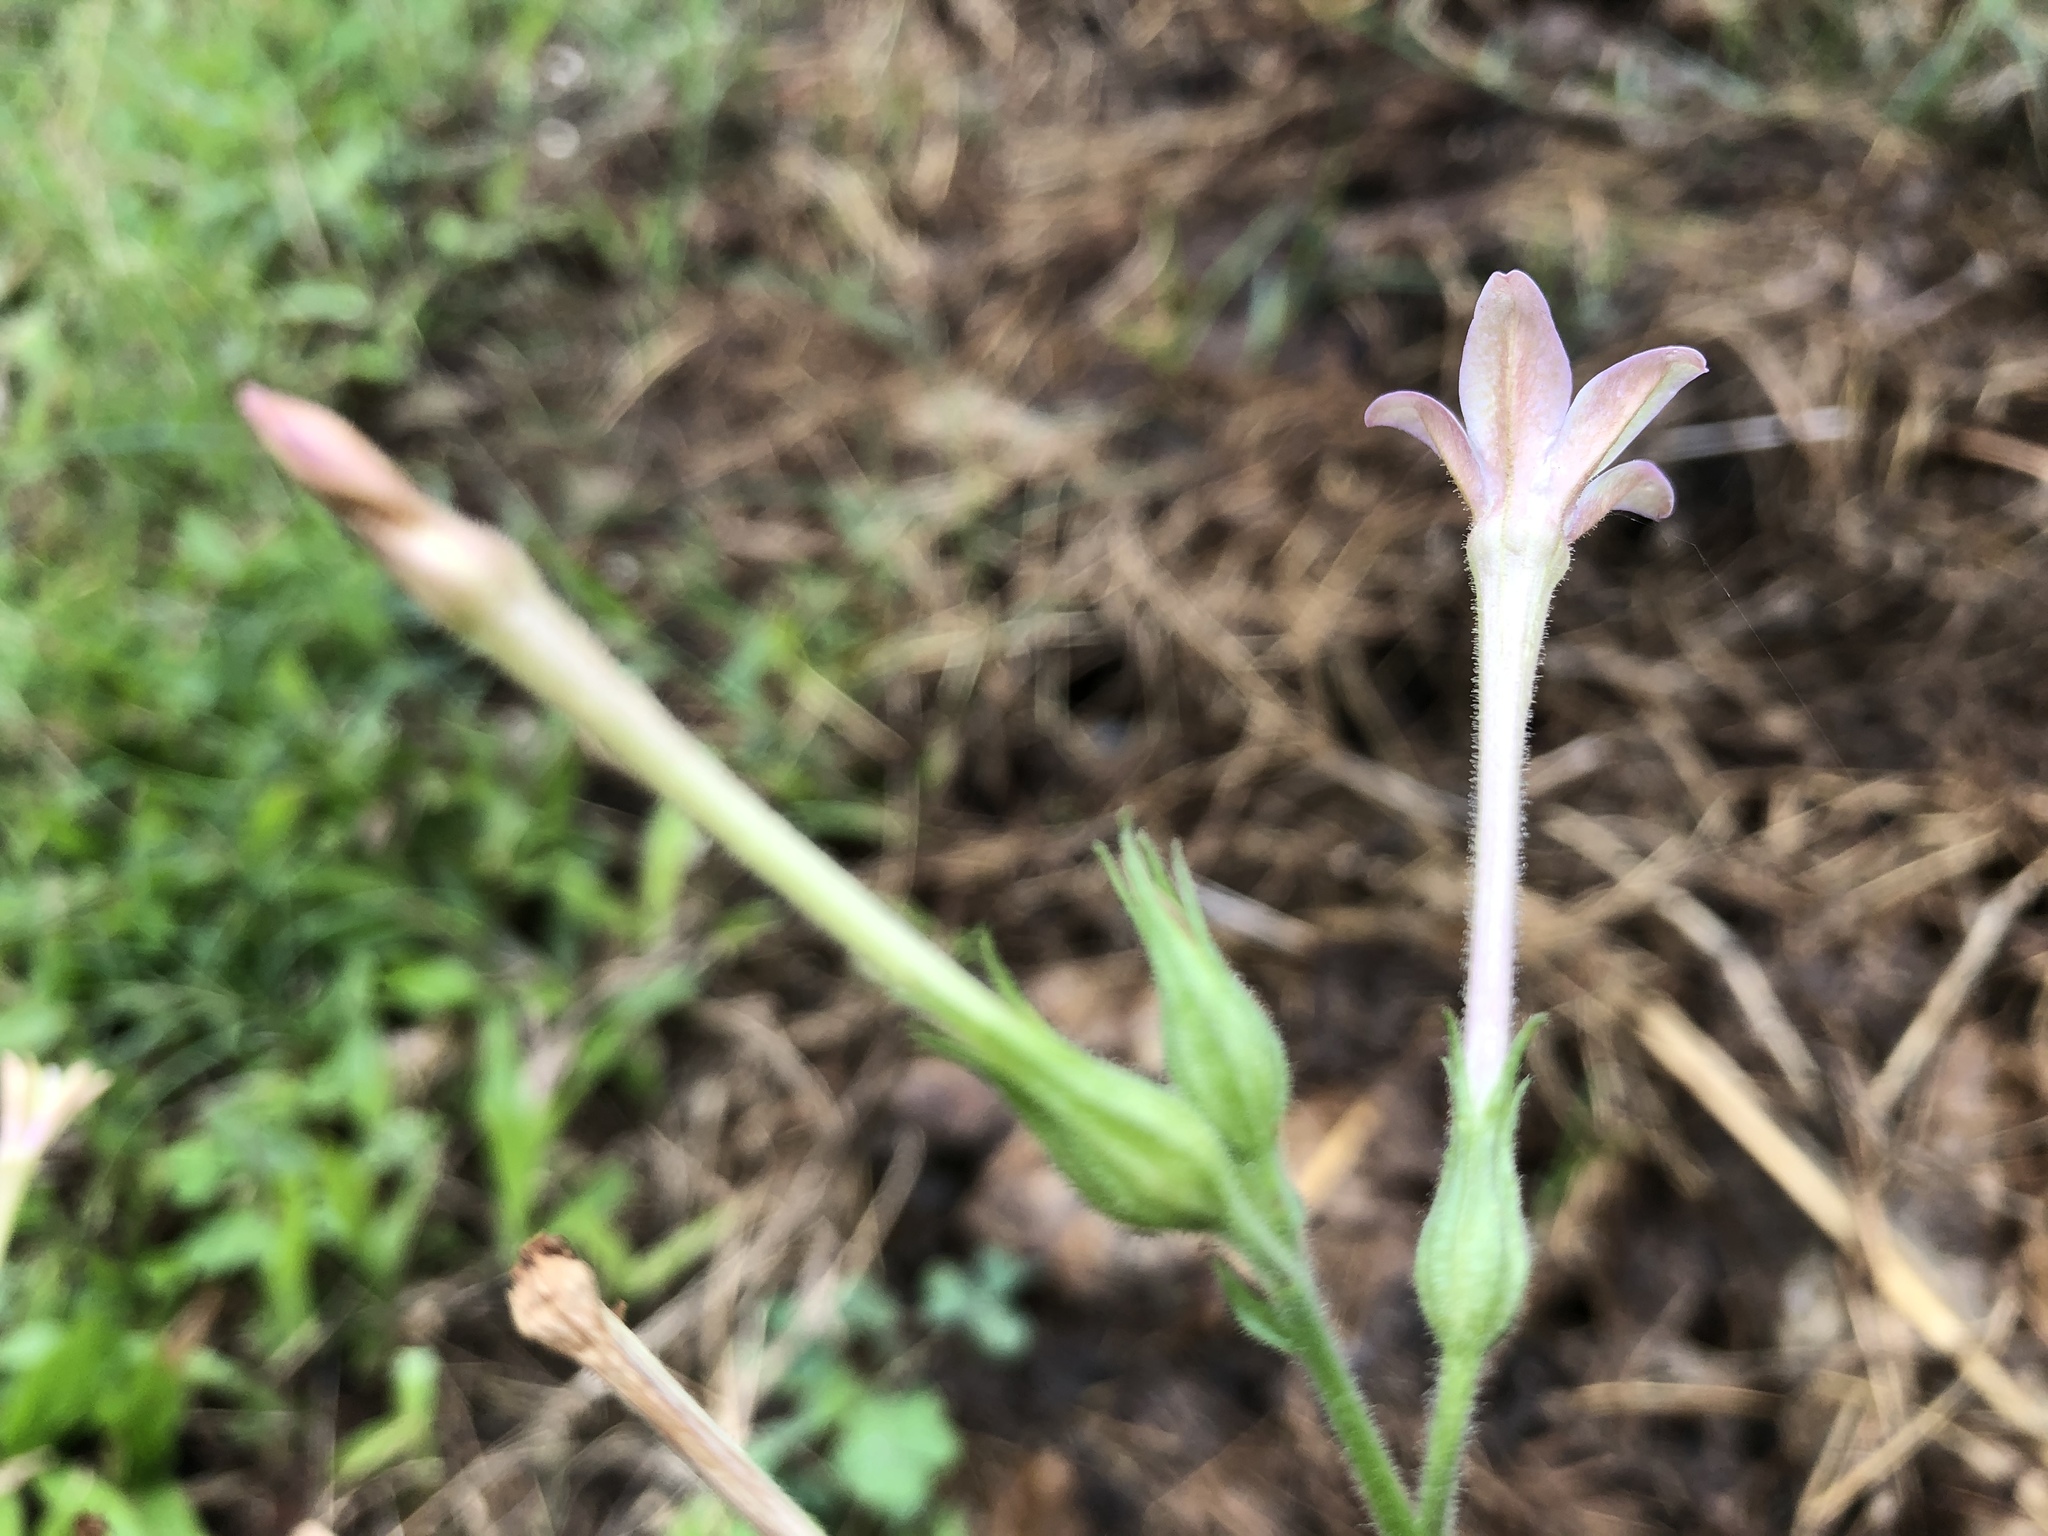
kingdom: Plantae
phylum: Tracheophyta
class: Magnoliopsida
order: Solanales
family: Solanaceae
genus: Nicotiana
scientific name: Nicotiana plumbaginifolia
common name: Tex-mex tobacco
